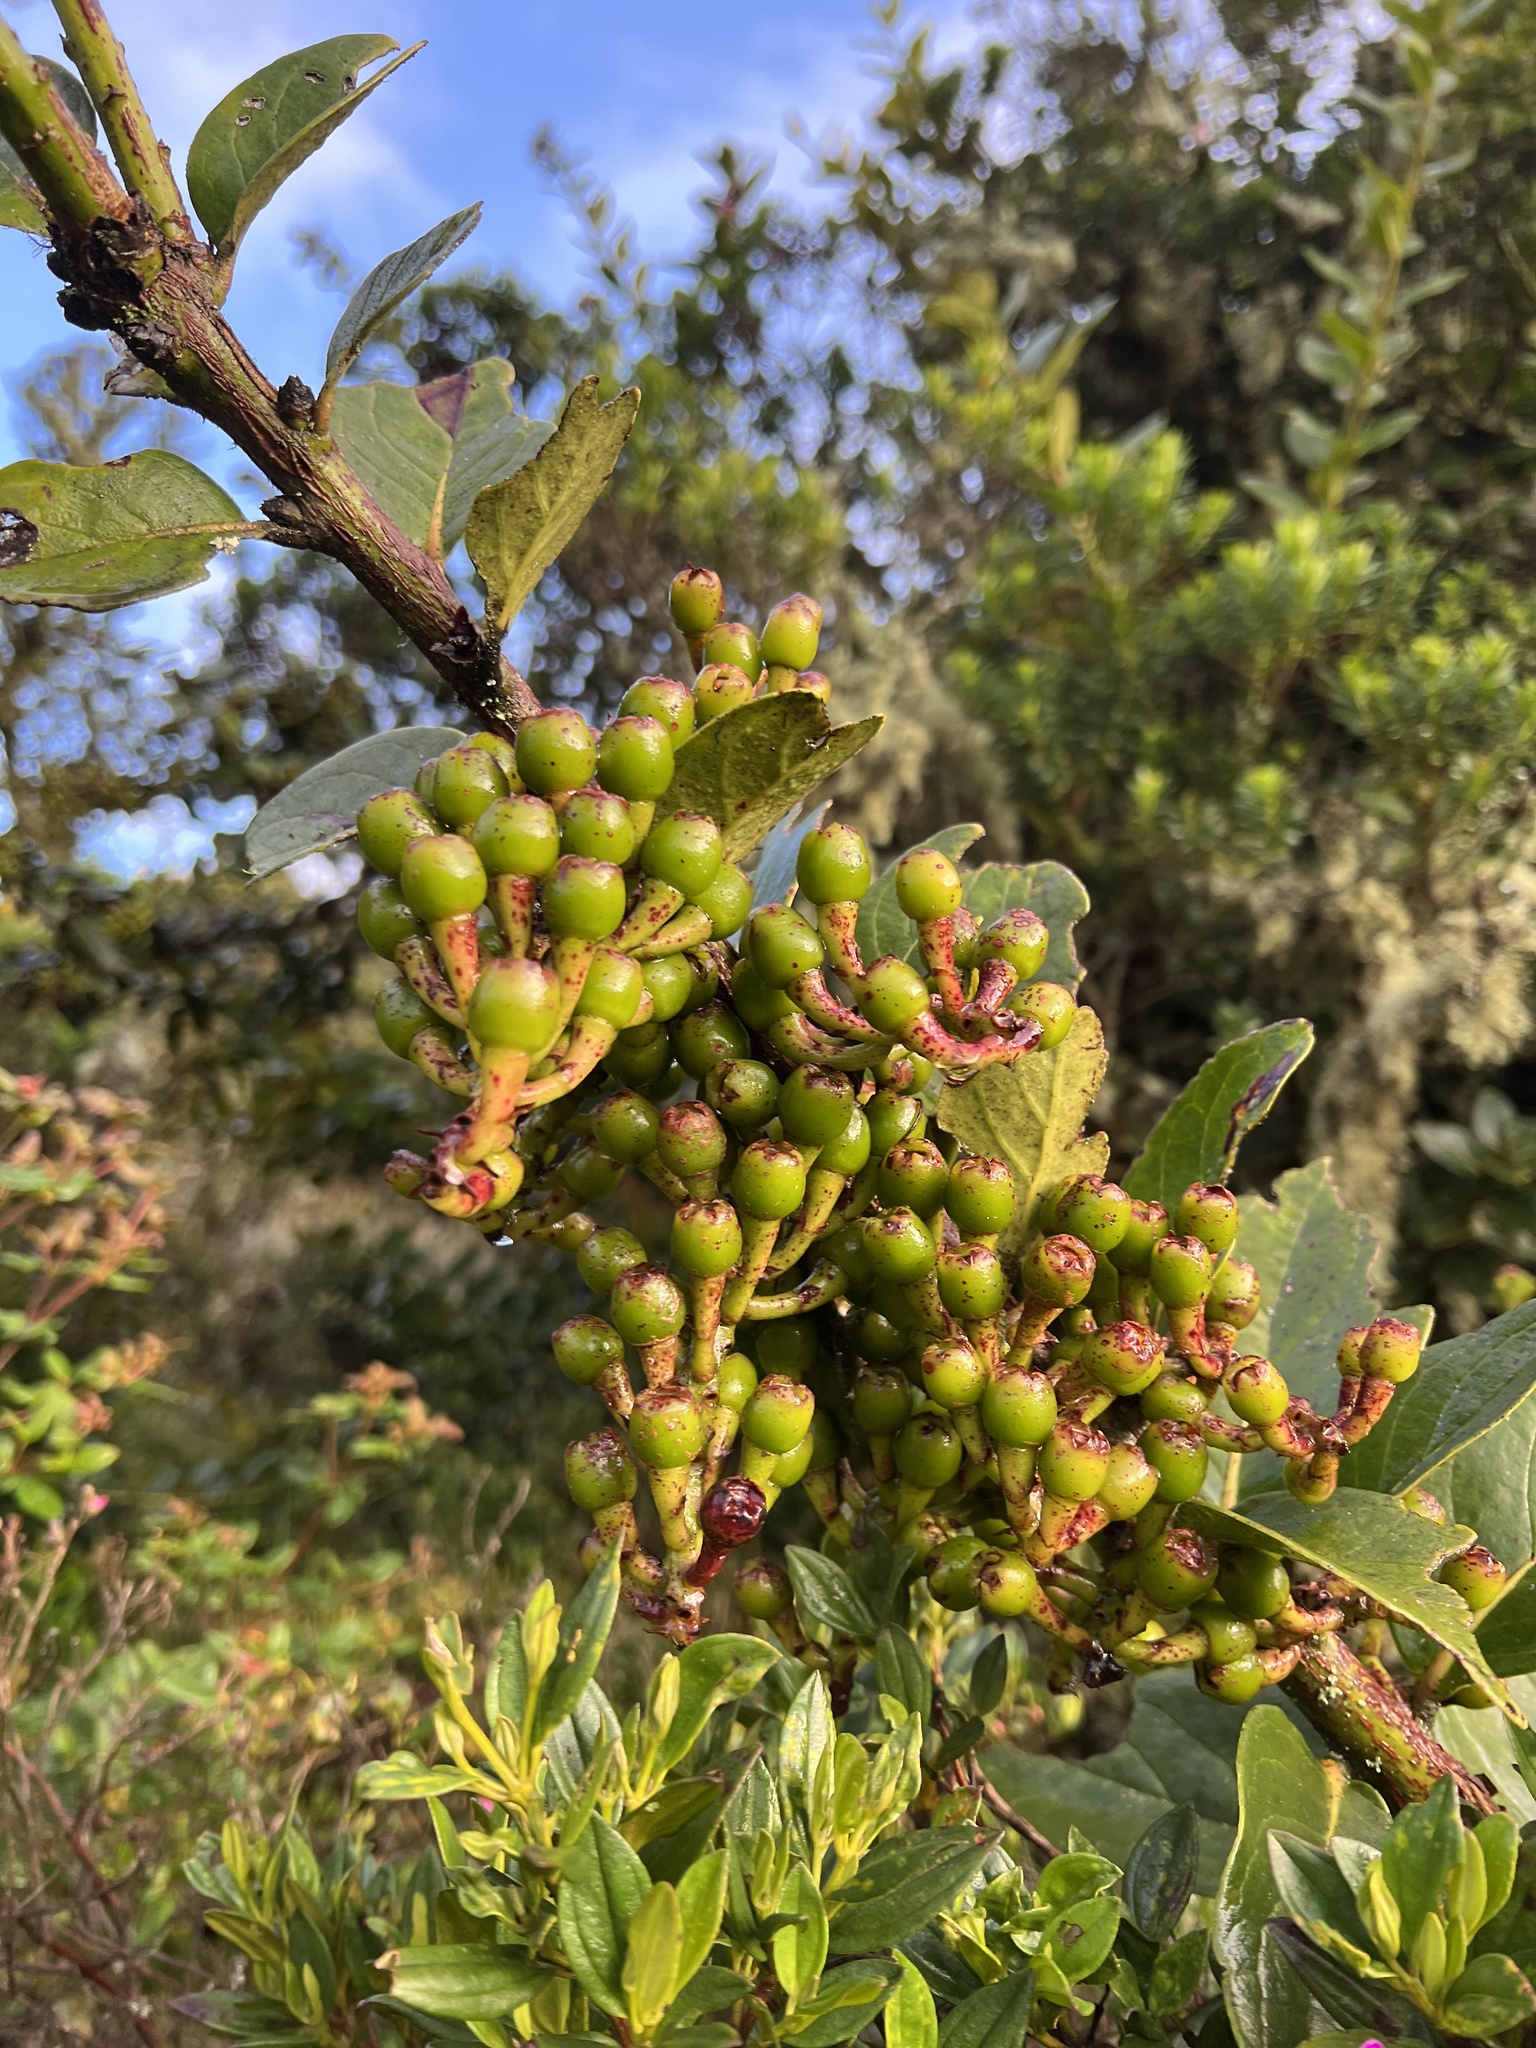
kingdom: Plantae
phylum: Tracheophyta
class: Magnoliopsida
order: Ericales
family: Ericaceae
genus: Macleania
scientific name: Macleania rupestris
